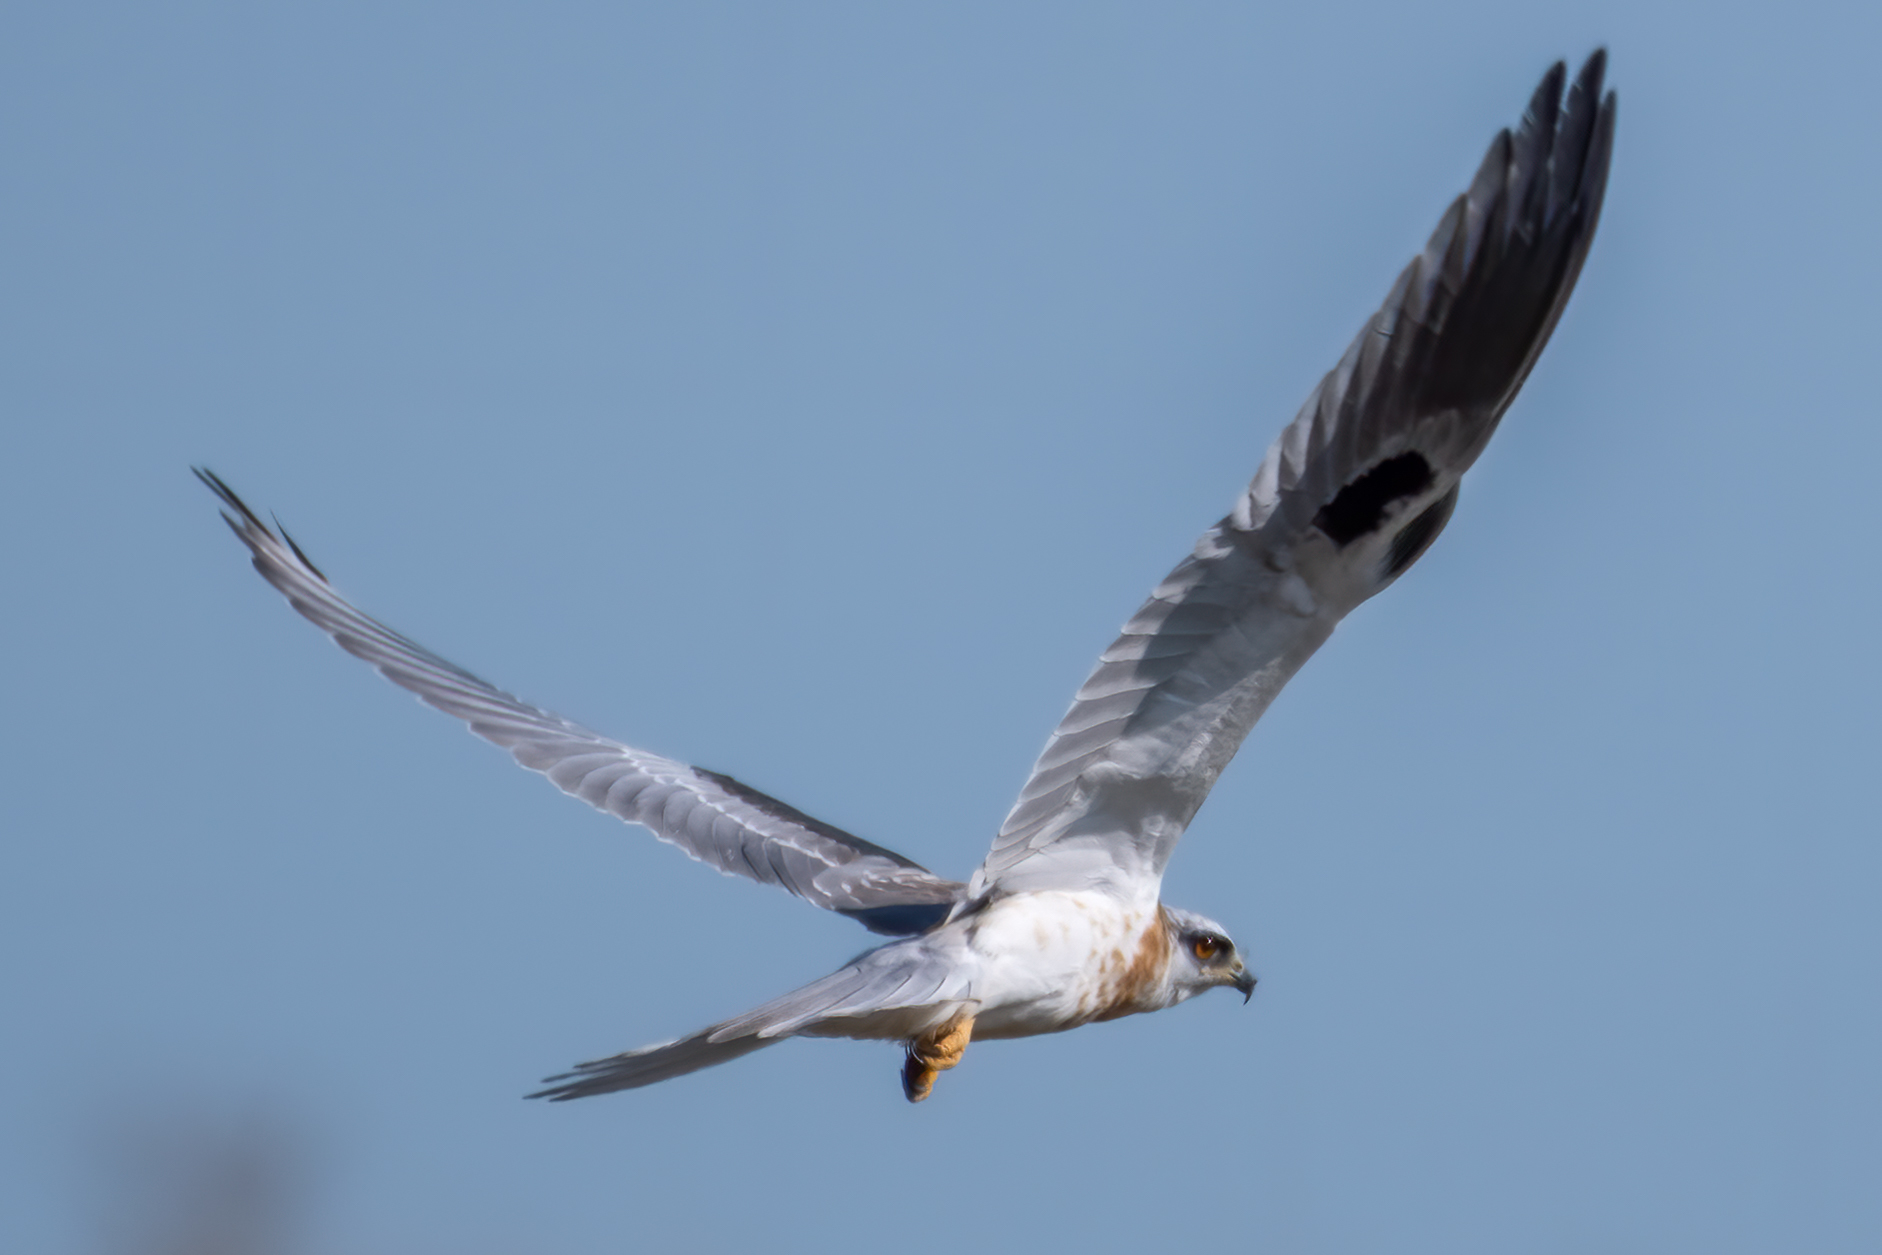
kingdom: Animalia
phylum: Chordata
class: Aves
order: Accipitriformes
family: Accipitridae
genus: Elanus
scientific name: Elanus leucurus
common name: White-tailed kite
